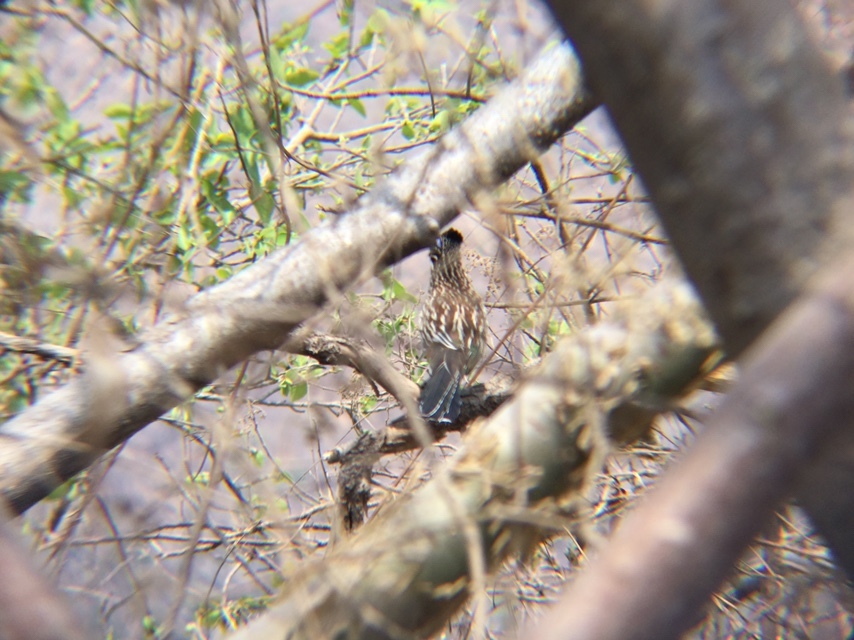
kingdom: Animalia
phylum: Chordata
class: Aves
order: Cuculiformes
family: Cuculidae
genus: Geococcyx
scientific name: Geococcyx velox
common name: Lesser roadrunner
